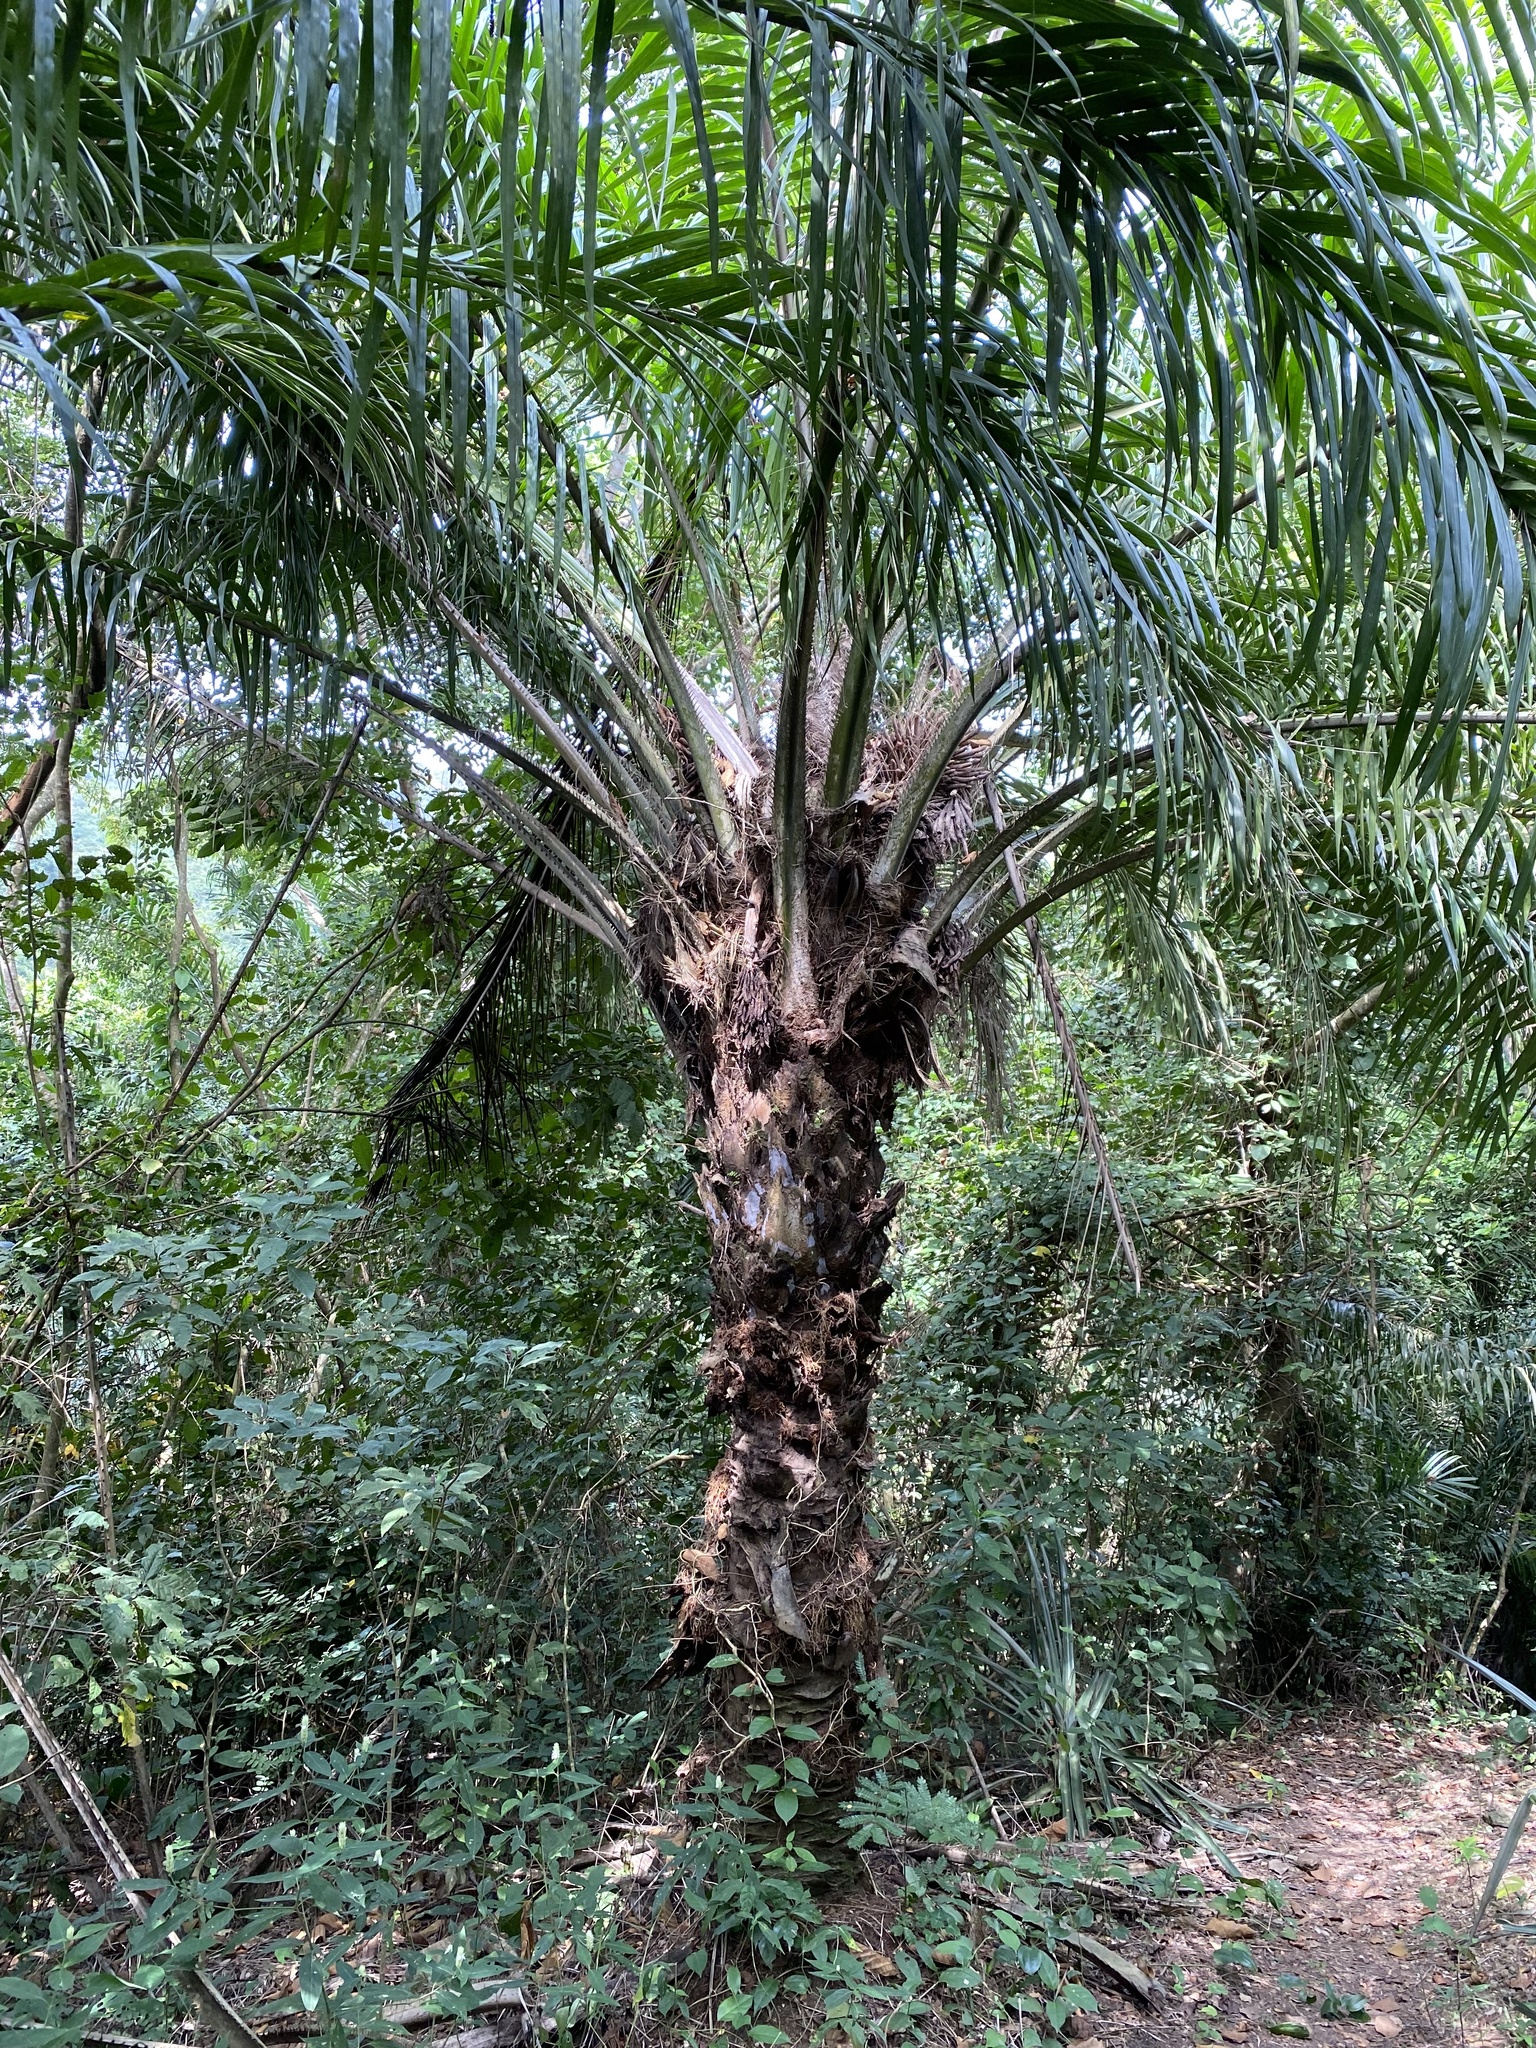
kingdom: Plantae
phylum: Tracheophyta
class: Liliopsida
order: Arecales
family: Arecaceae
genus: Elaeis
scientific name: Elaeis guineensis
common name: Oil palm
